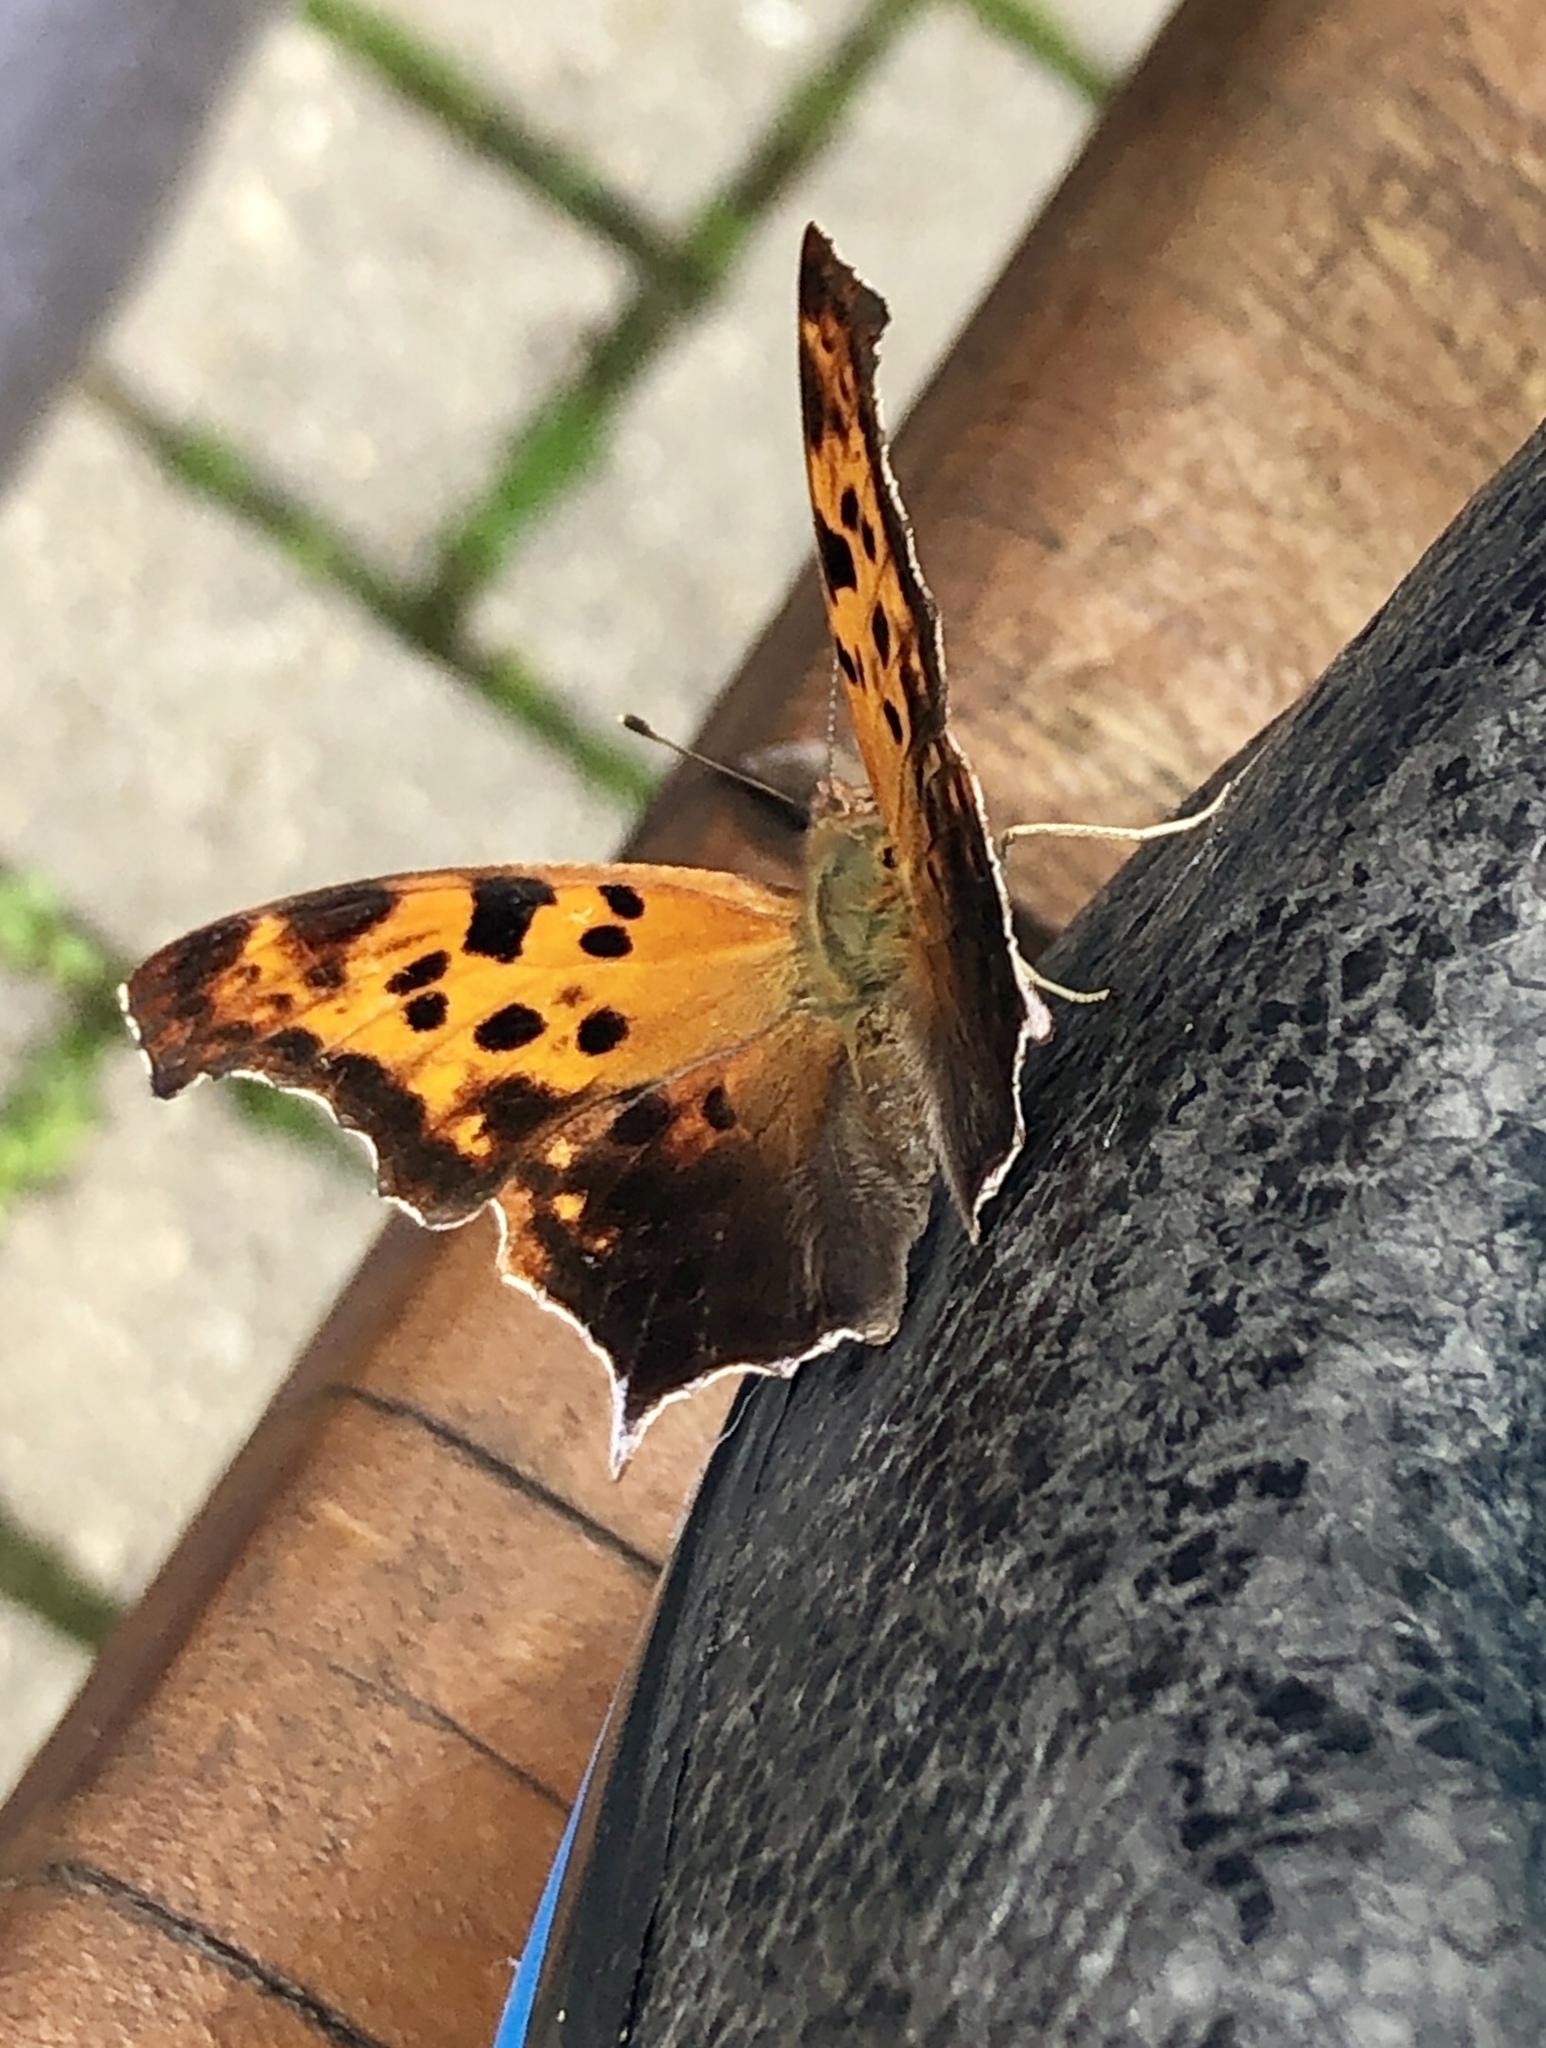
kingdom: Animalia
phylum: Arthropoda
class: Insecta
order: Lepidoptera
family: Nymphalidae
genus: Polygonia
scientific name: Polygonia interrogationis
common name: Question mark
